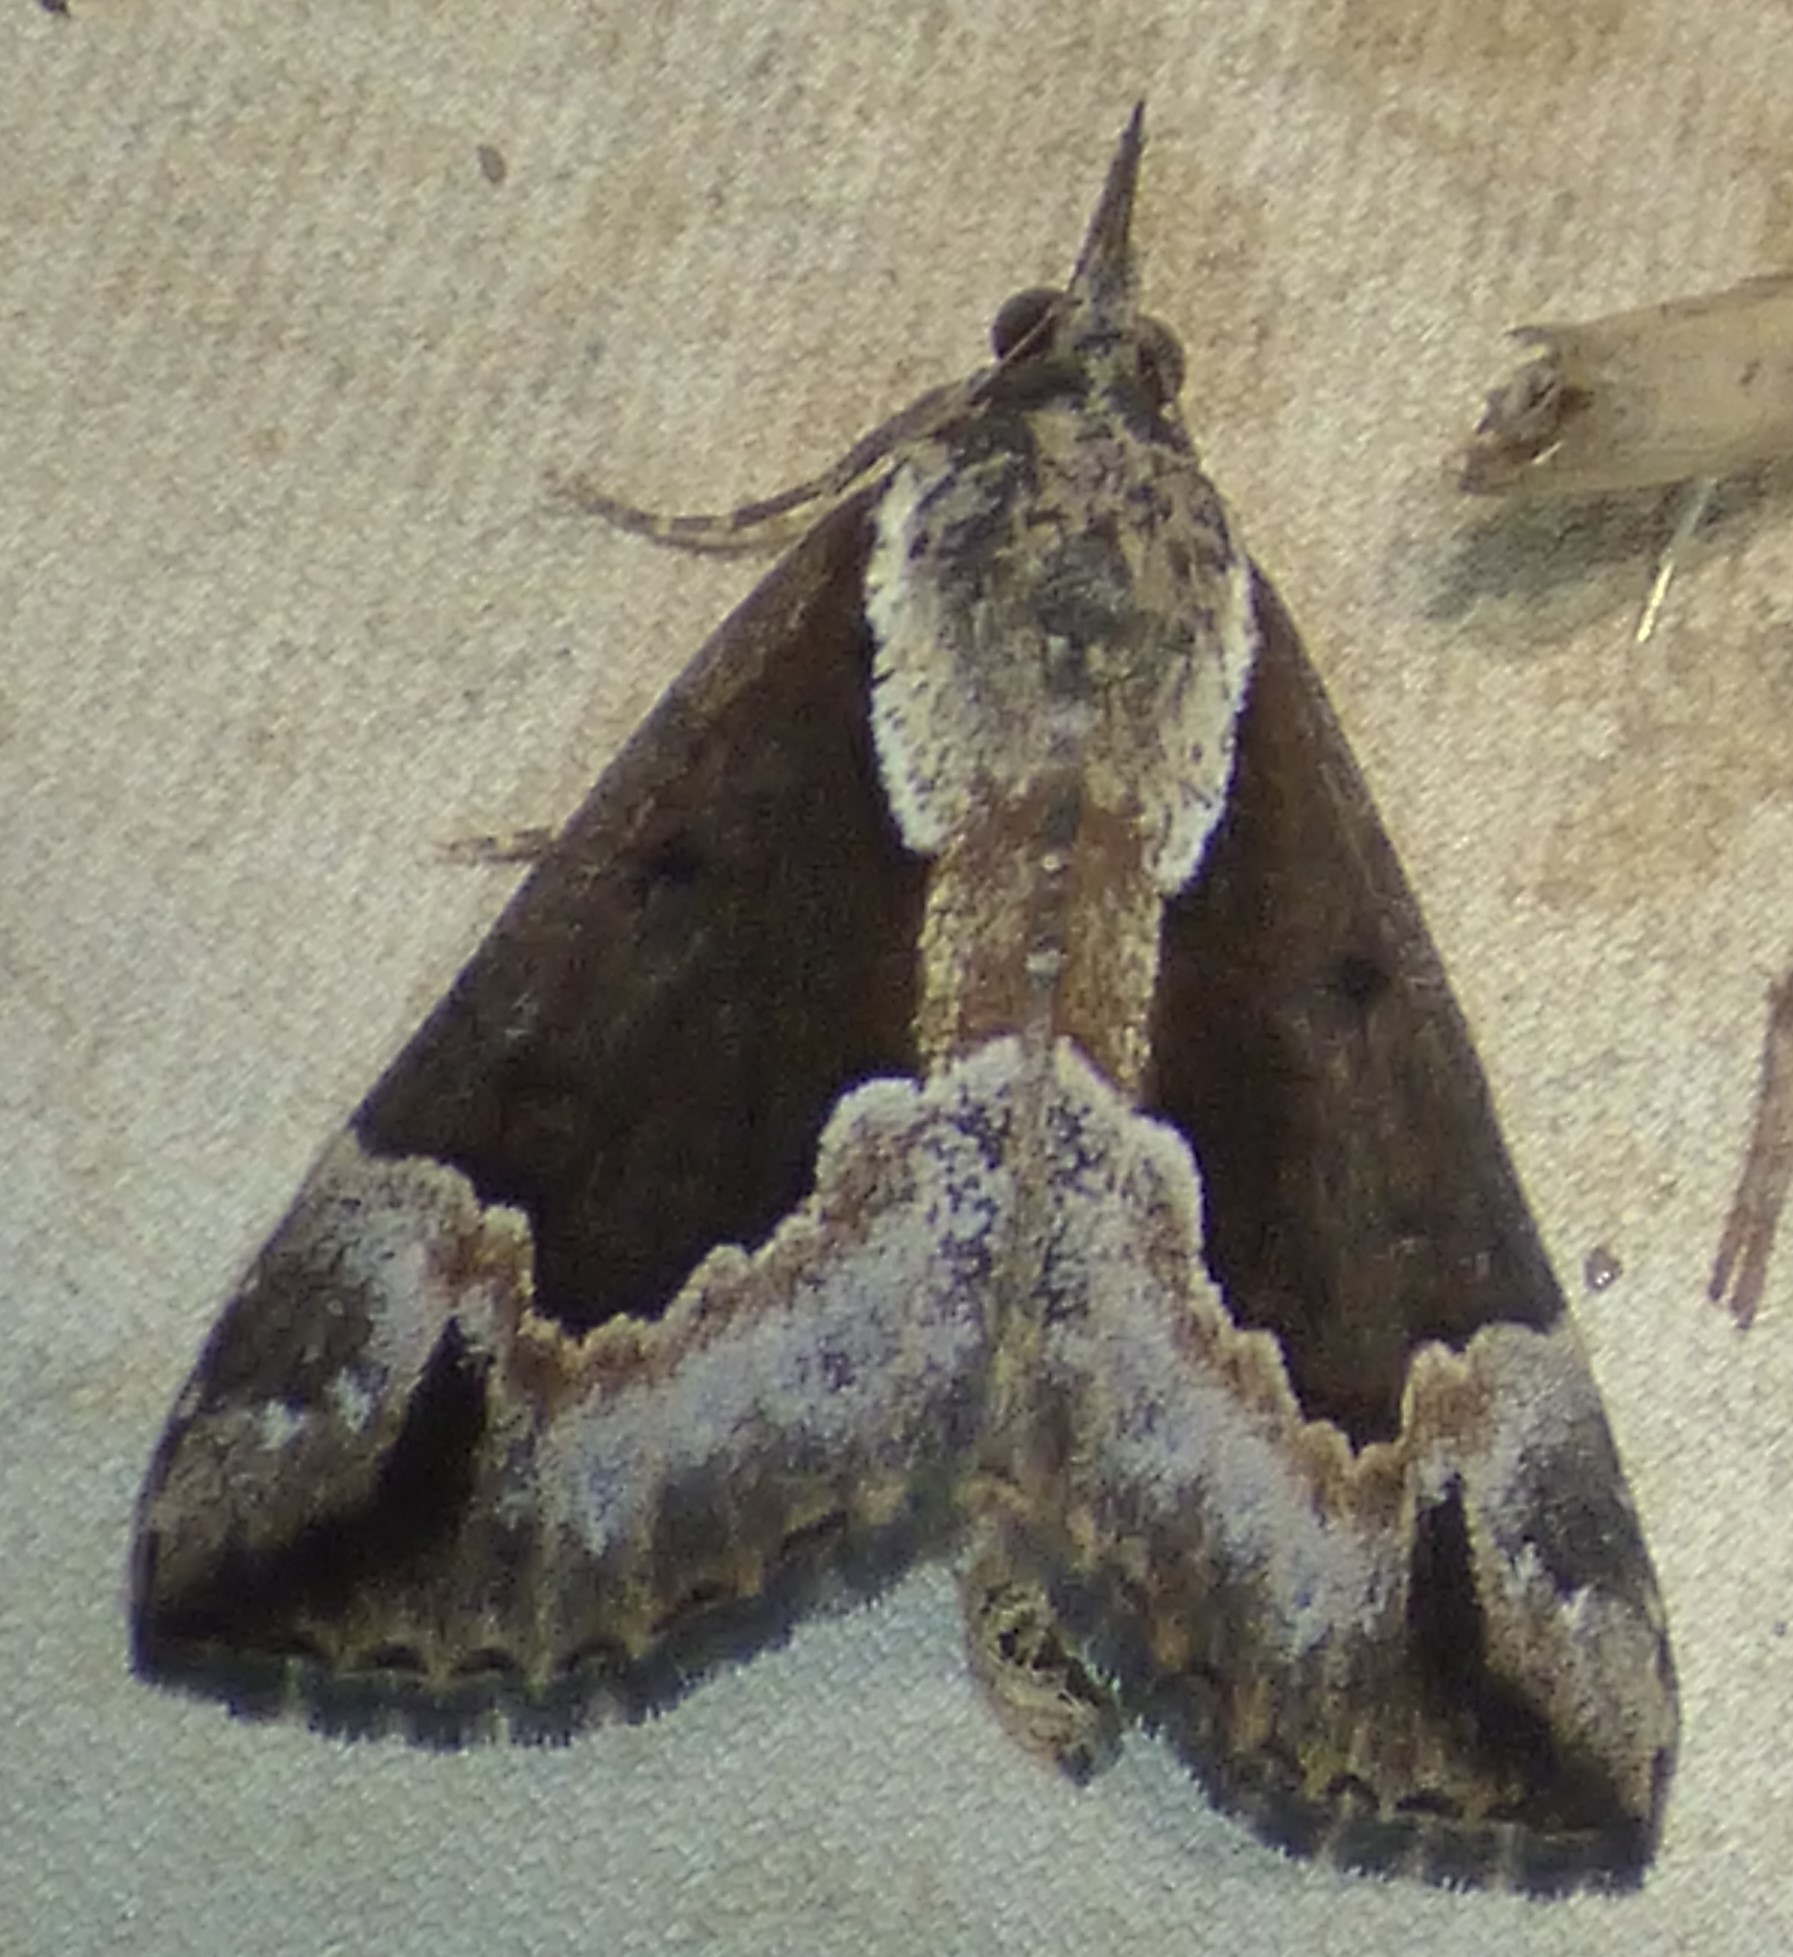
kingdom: Animalia
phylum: Arthropoda
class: Insecta
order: Lepidoptera
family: Erebidae
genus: Hypena
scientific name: Hypena baltimoralis
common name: Baltimore snout
